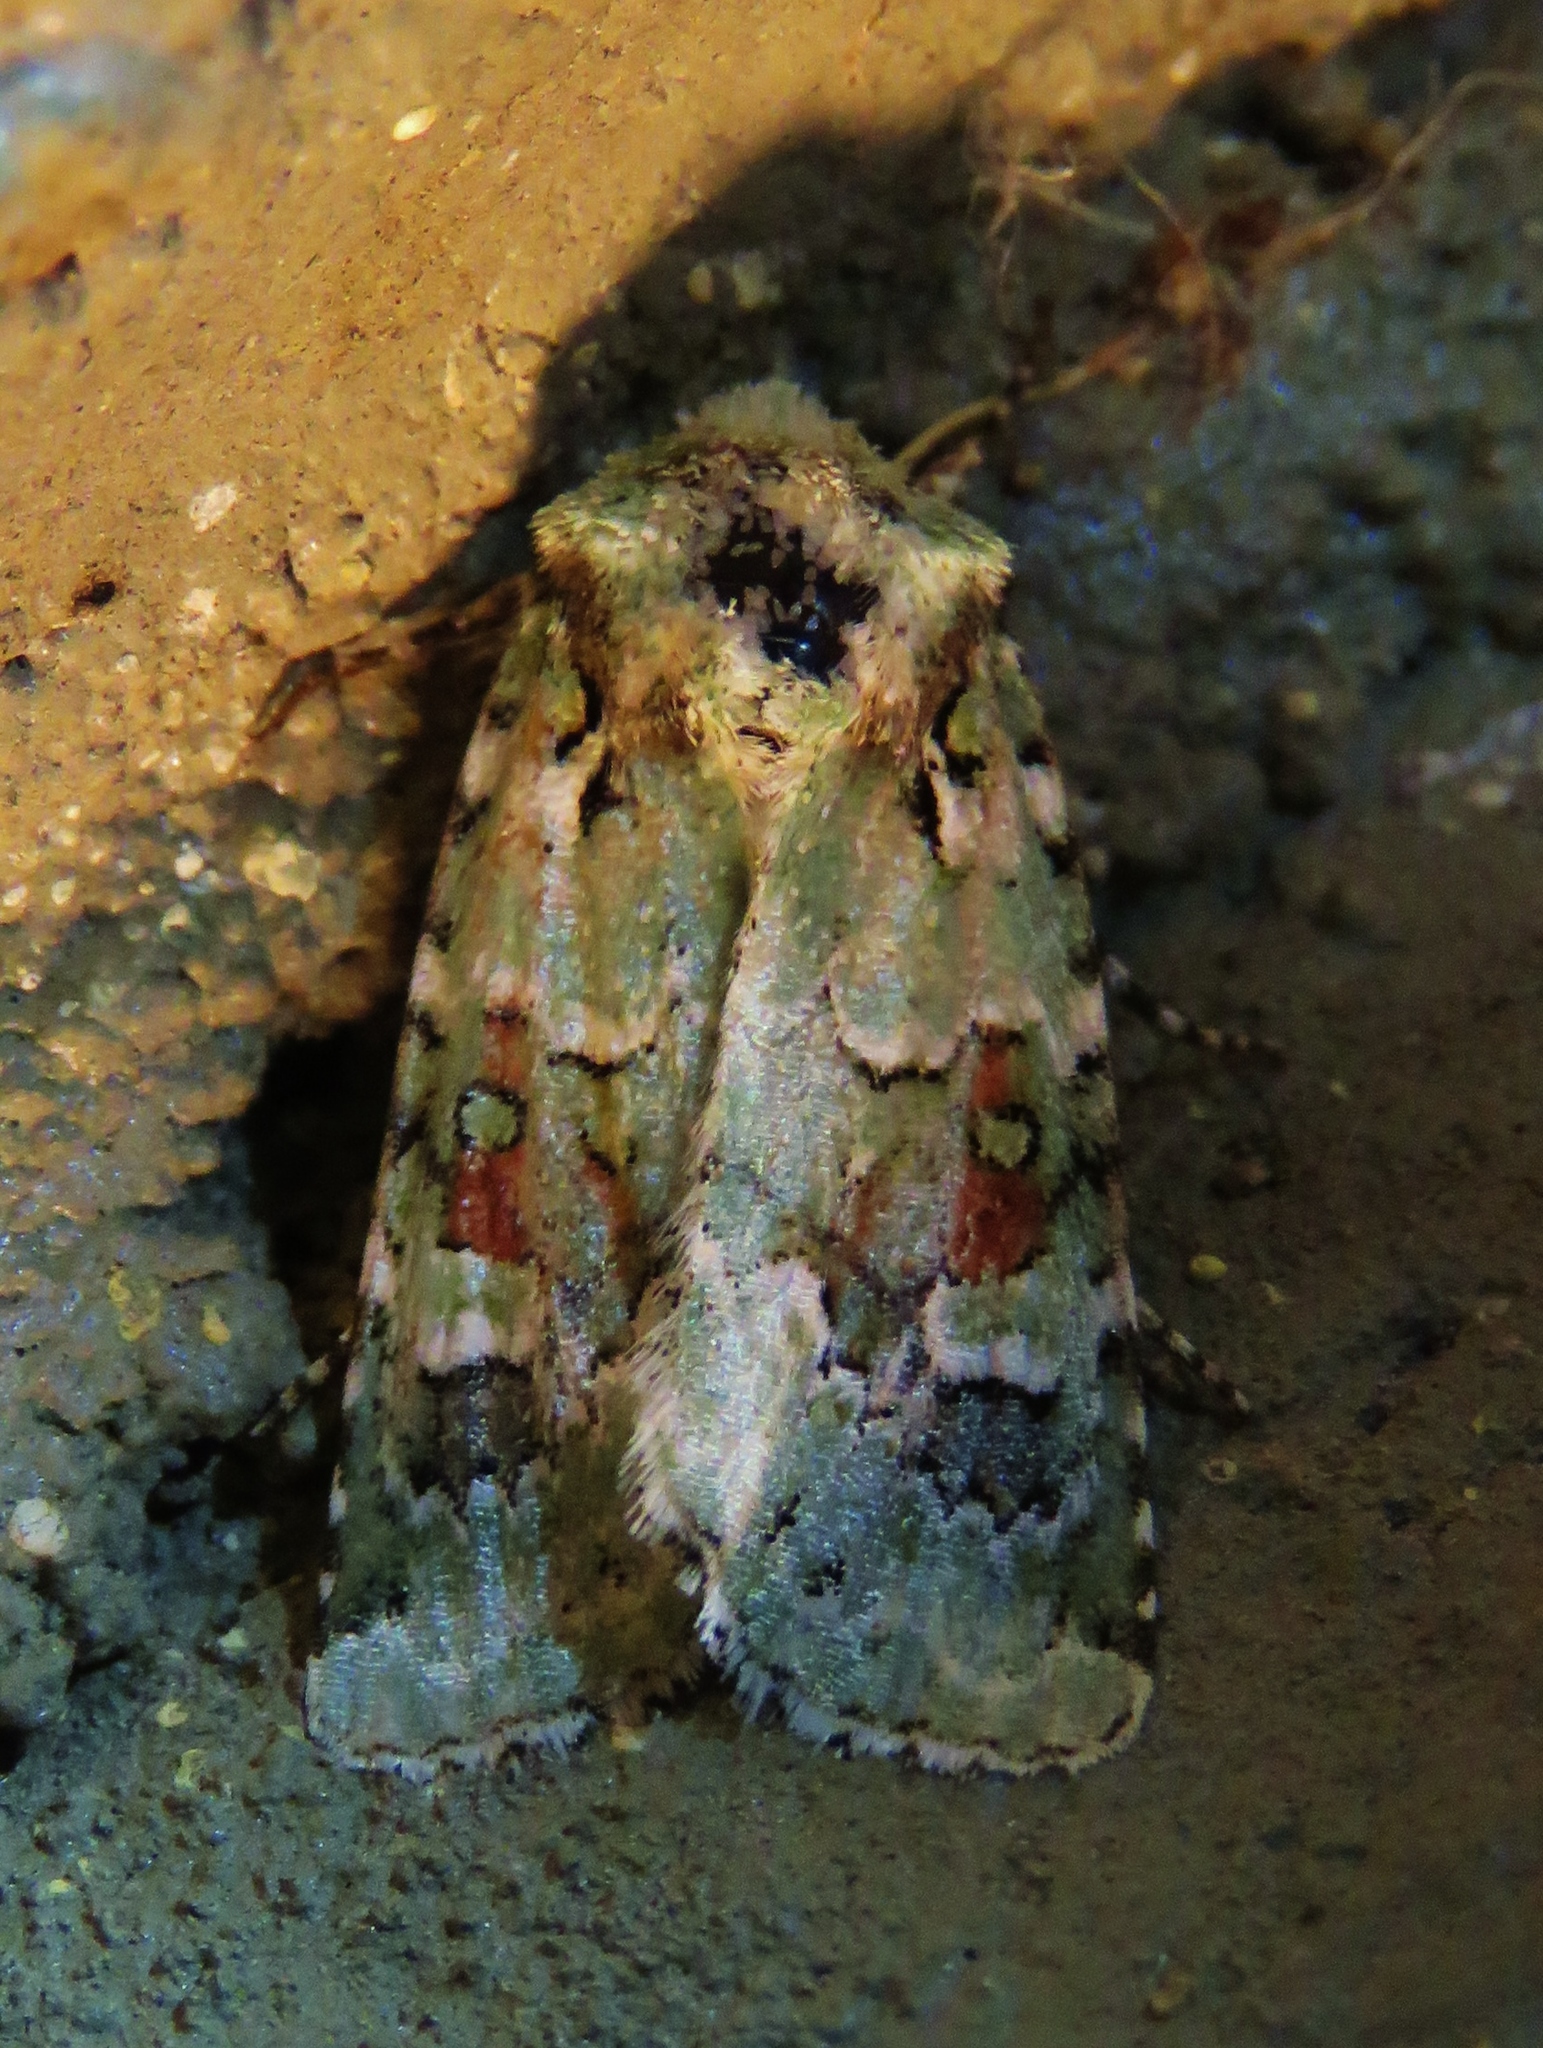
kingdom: Animalia
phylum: Arthropoda
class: Insecta
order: Lepidoptera
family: Noctuidae
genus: Lacinipolia
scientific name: Lacinipolia laudabilis
